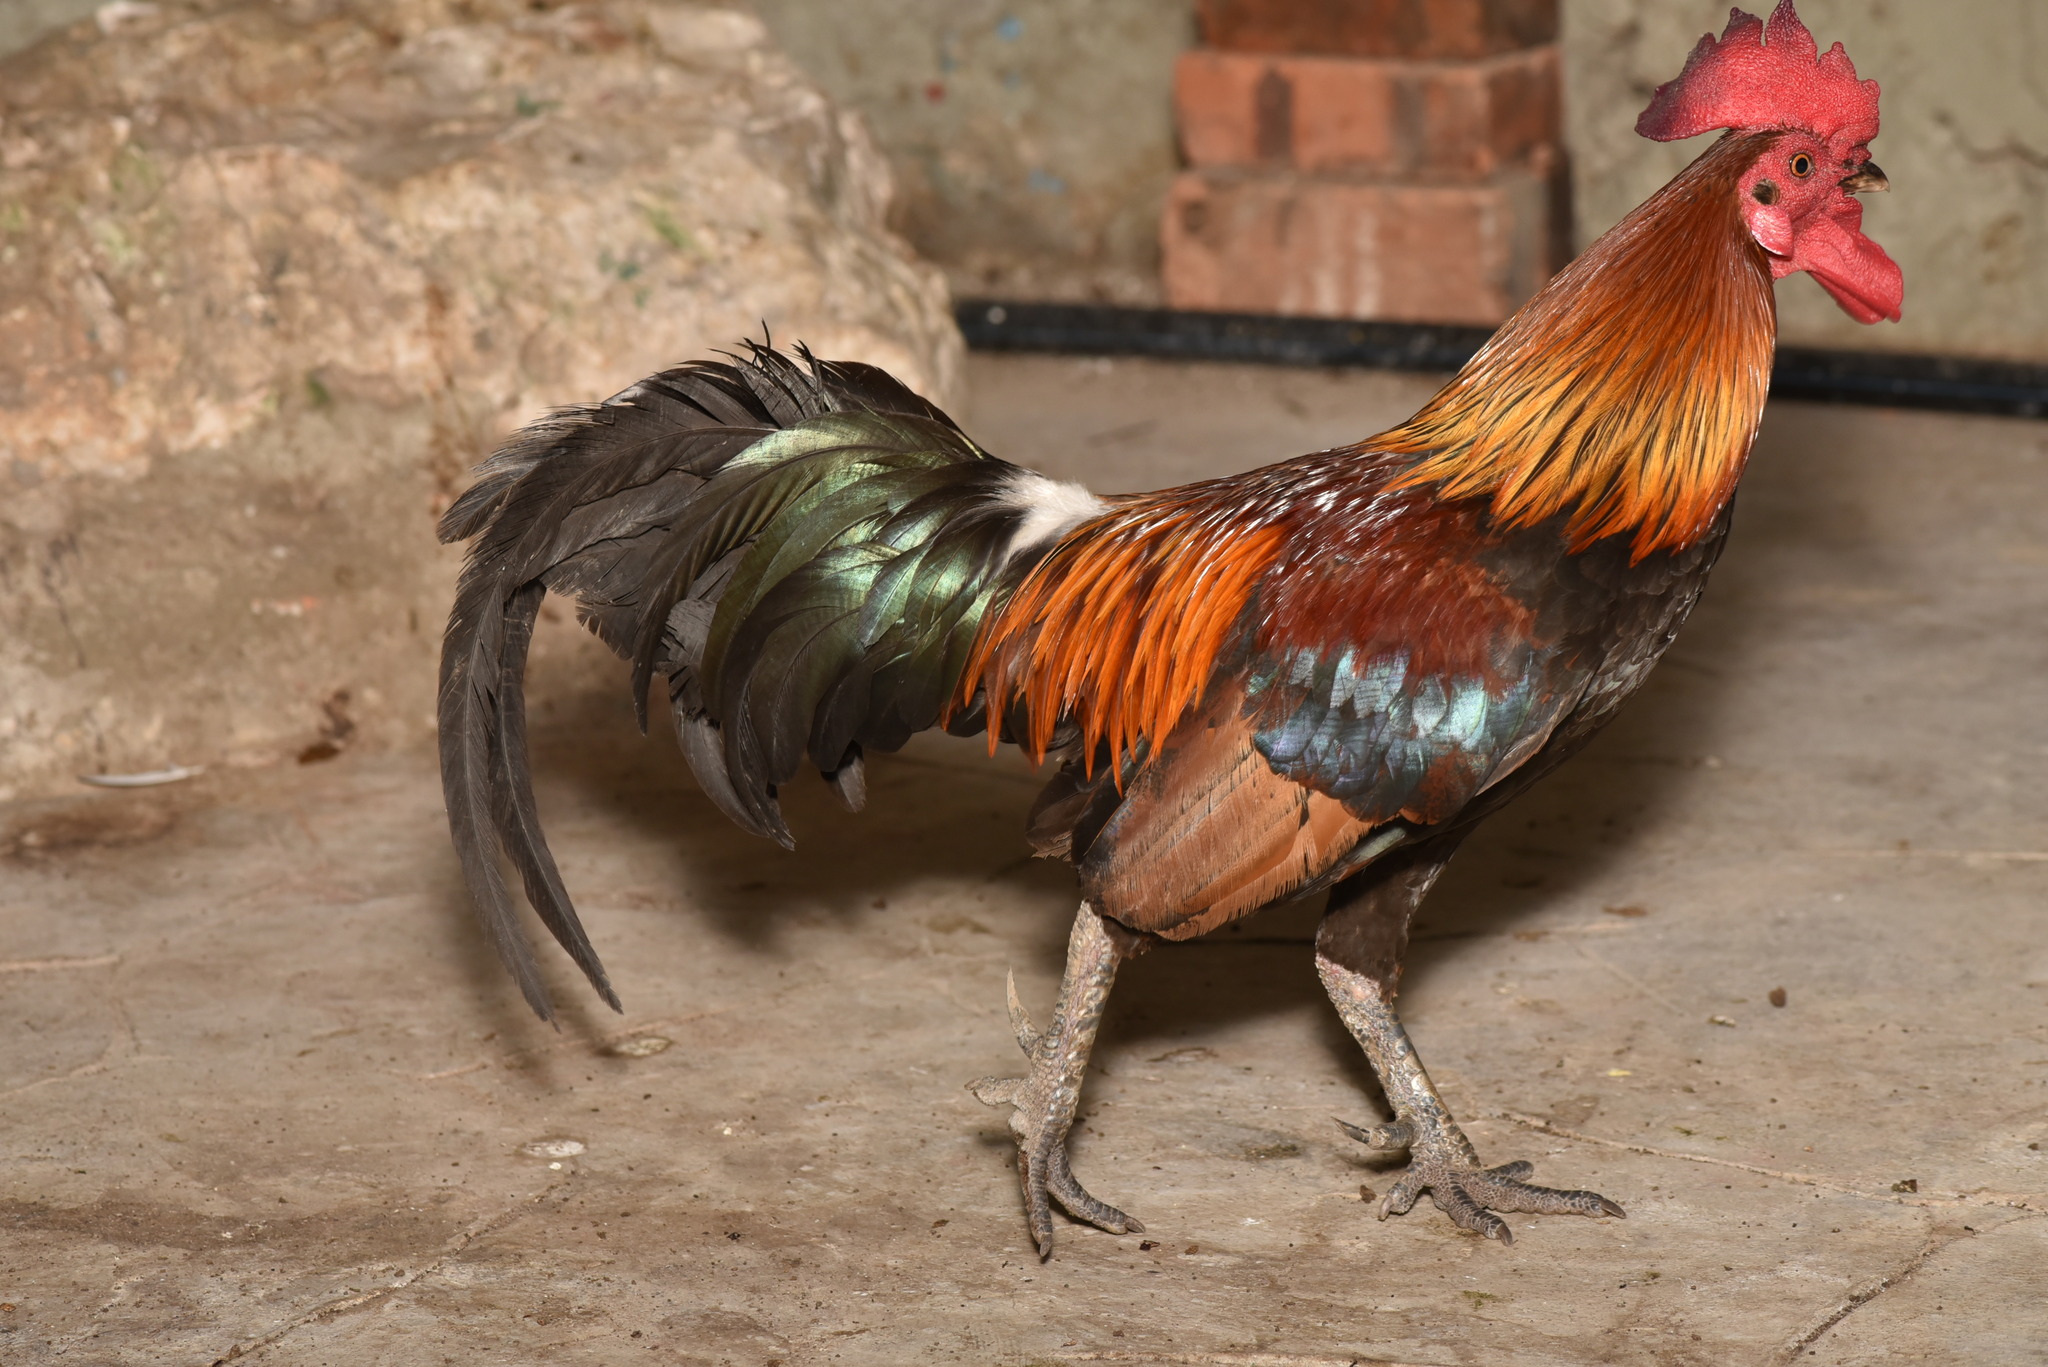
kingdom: Animalia
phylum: Chordata
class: Aves
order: Galliformes
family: Phasianidae
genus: Gallus
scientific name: Gallus gallus
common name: Red junglefowl
